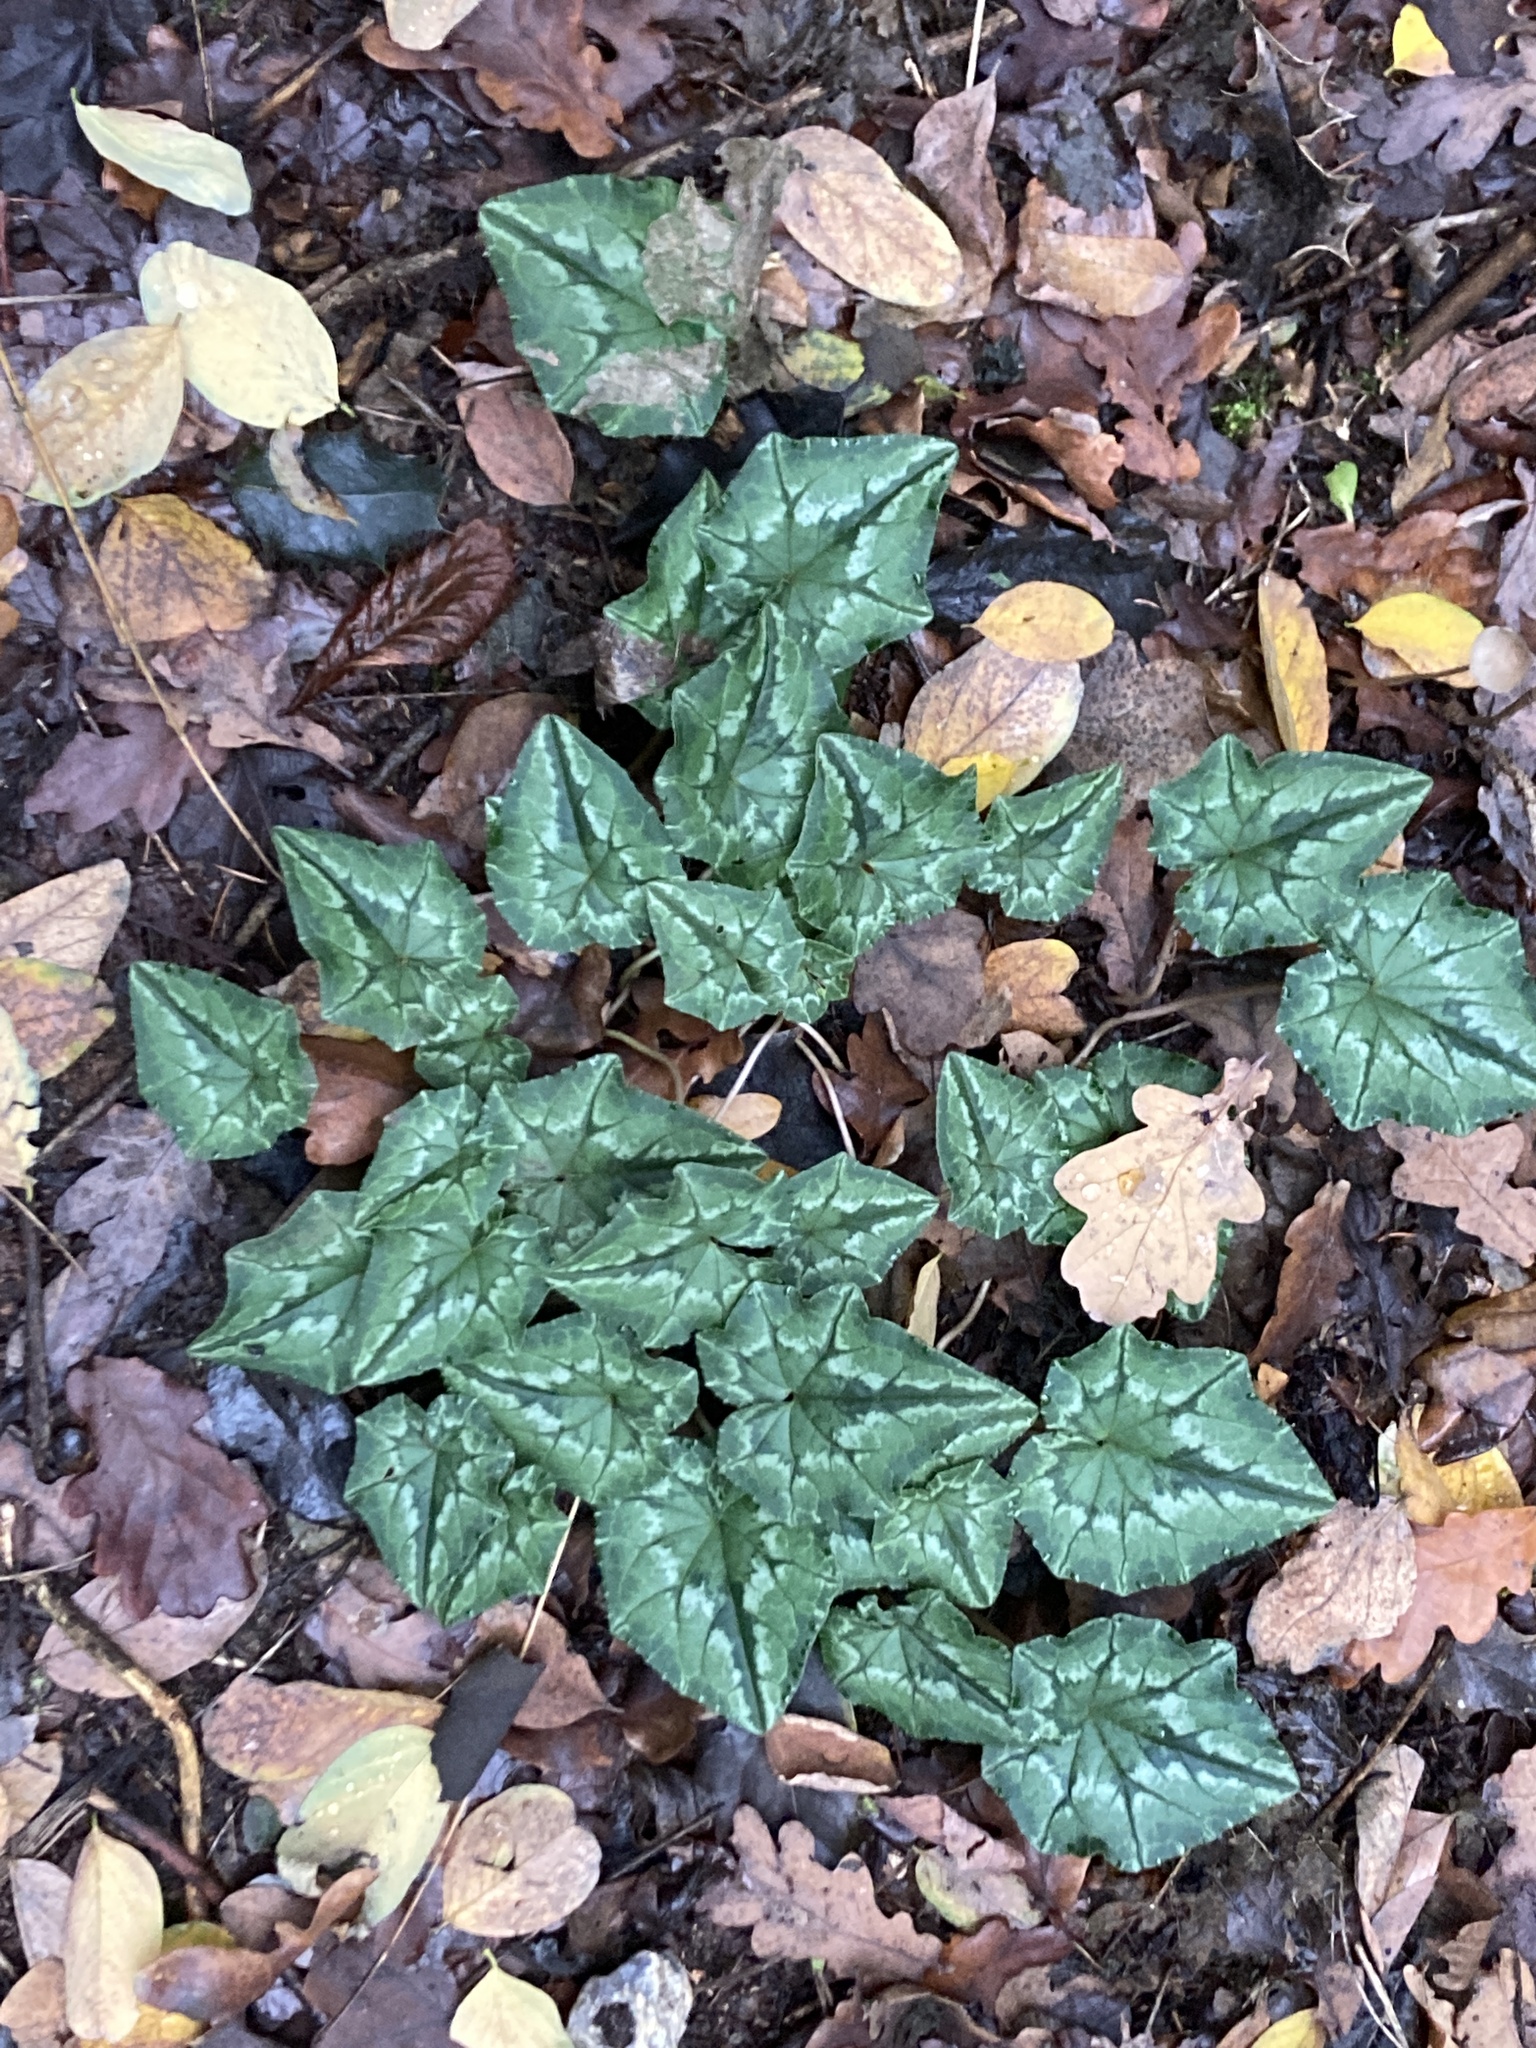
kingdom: Plantae
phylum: Tracheophyta
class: Magnoliopsida
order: Ericales
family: Primulaceae
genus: Cyclamen
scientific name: Cyclamen hederifolium
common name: Sowbread
